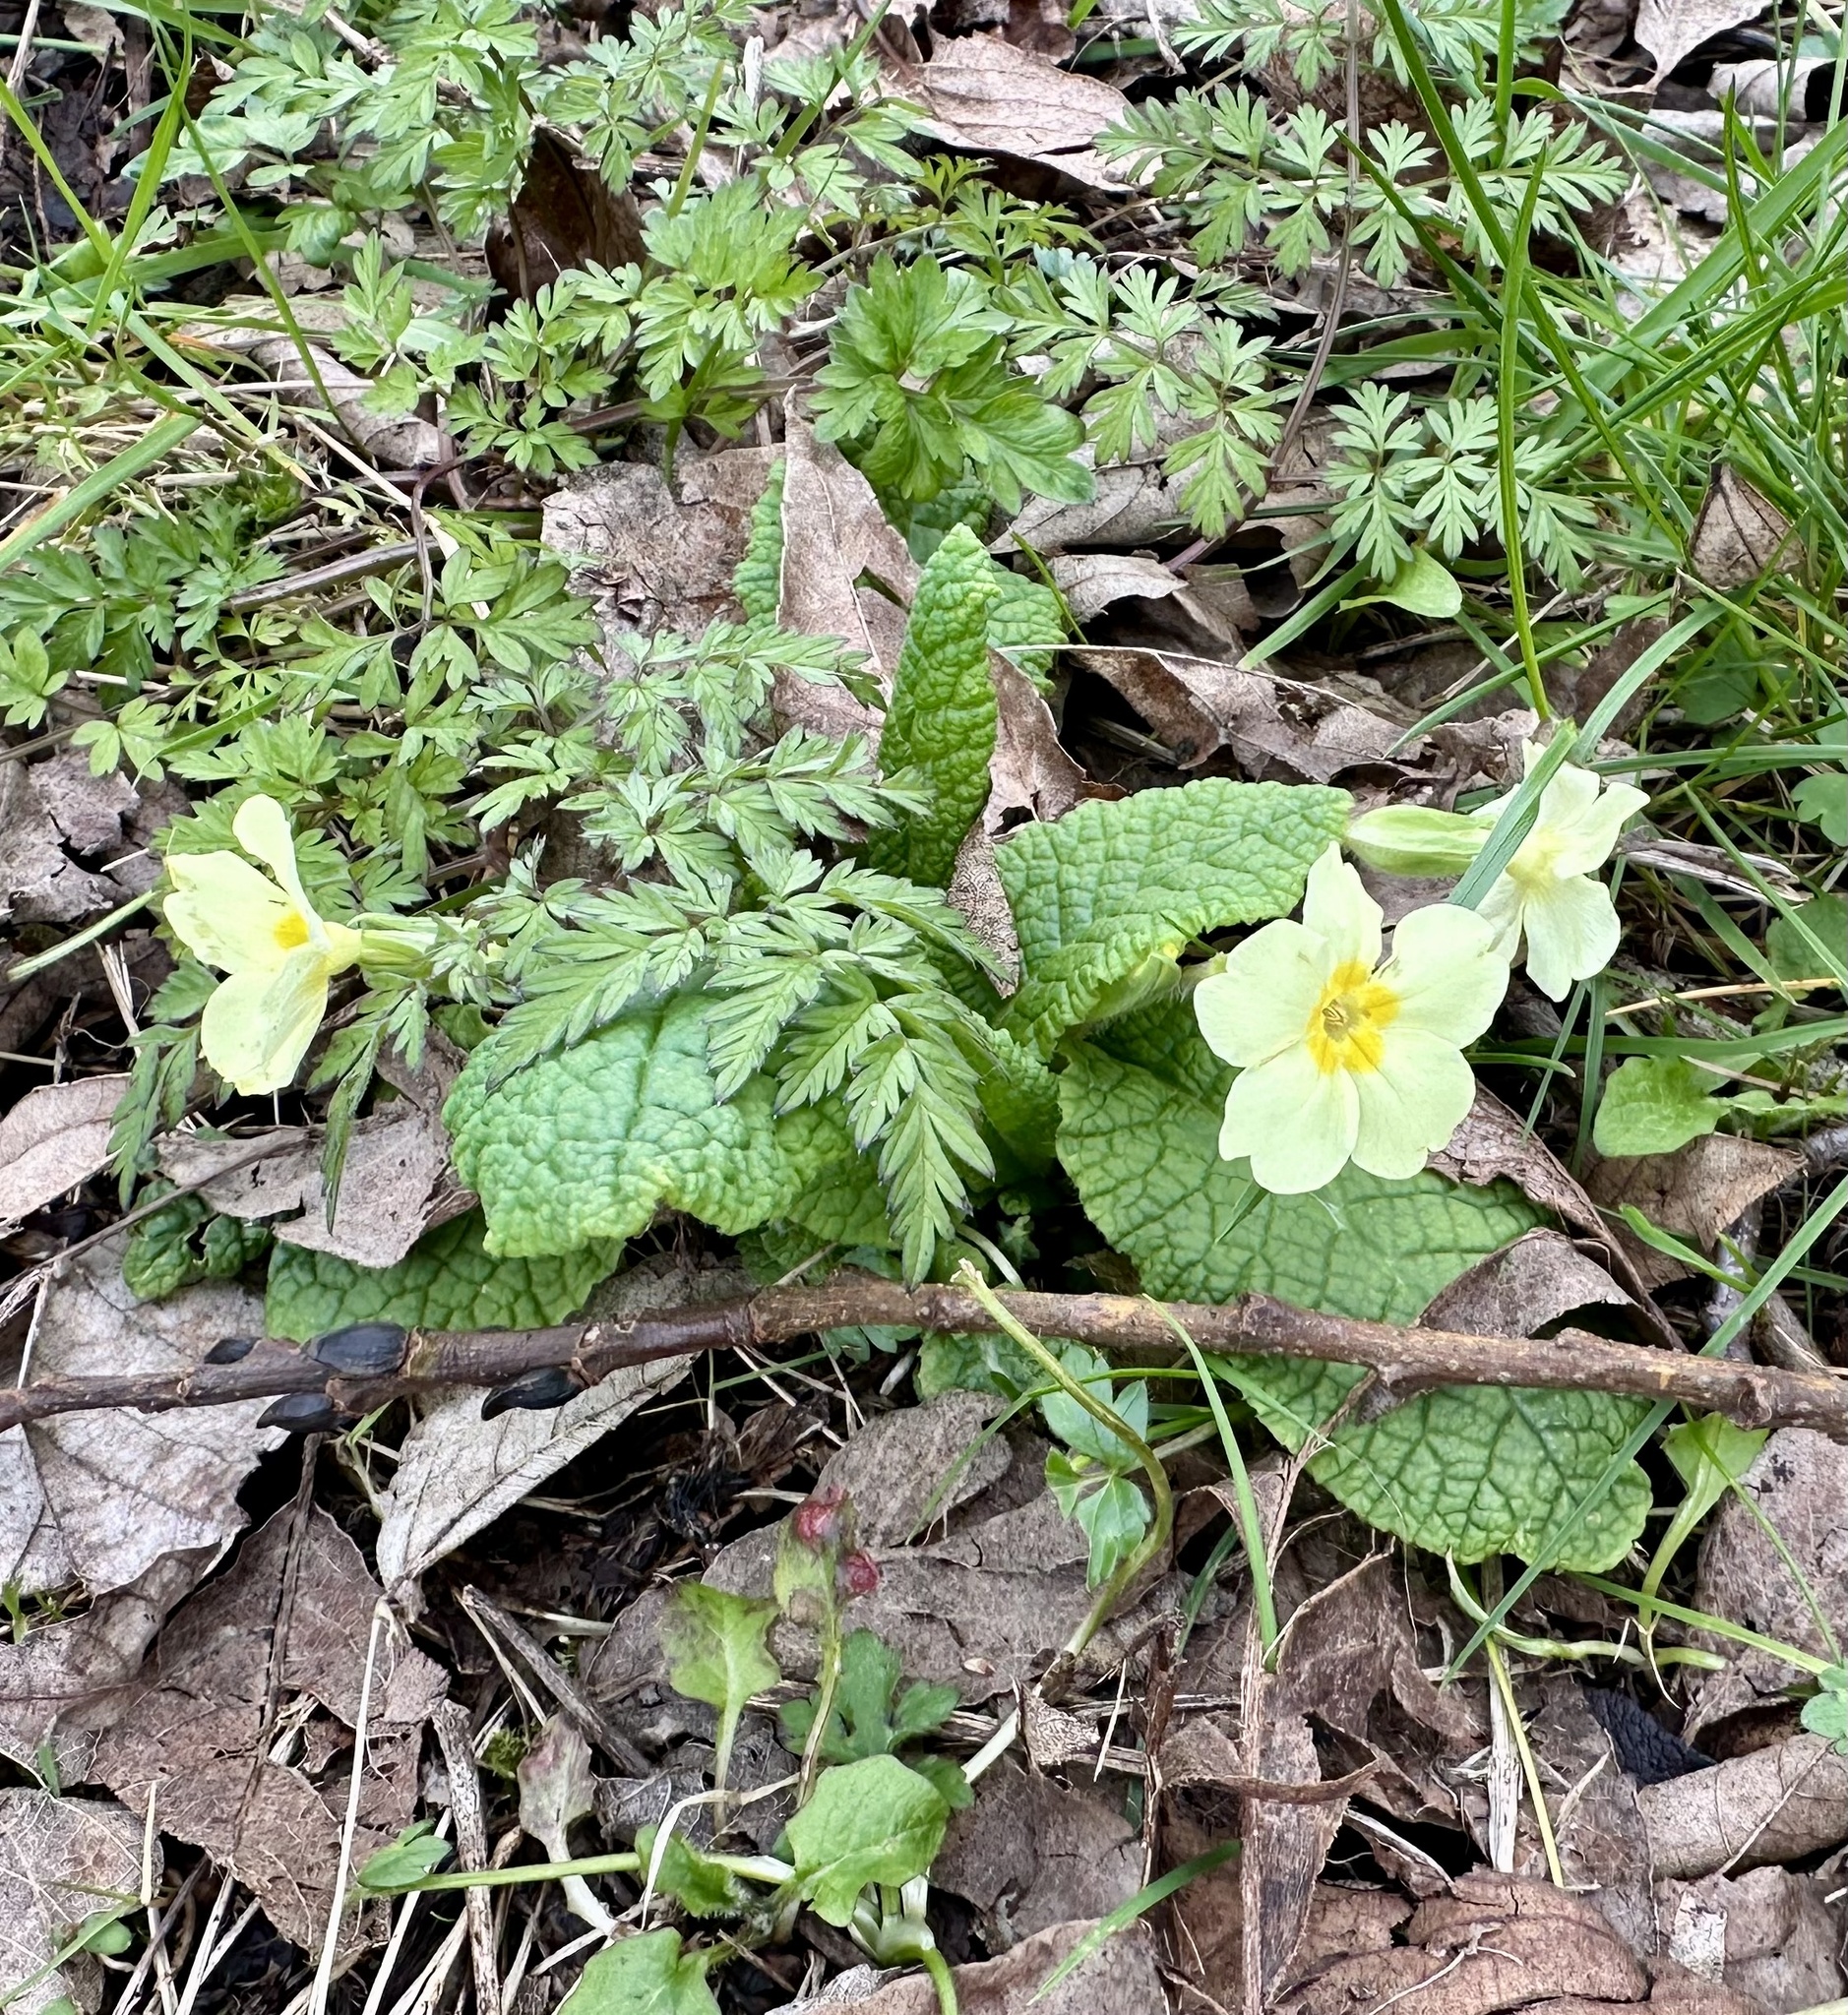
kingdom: Plantae
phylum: Tracheophyta
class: Magnoliopsida
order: Ericales
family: Primulaceae
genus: Primula
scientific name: Primula vulgaris
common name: Primrose
